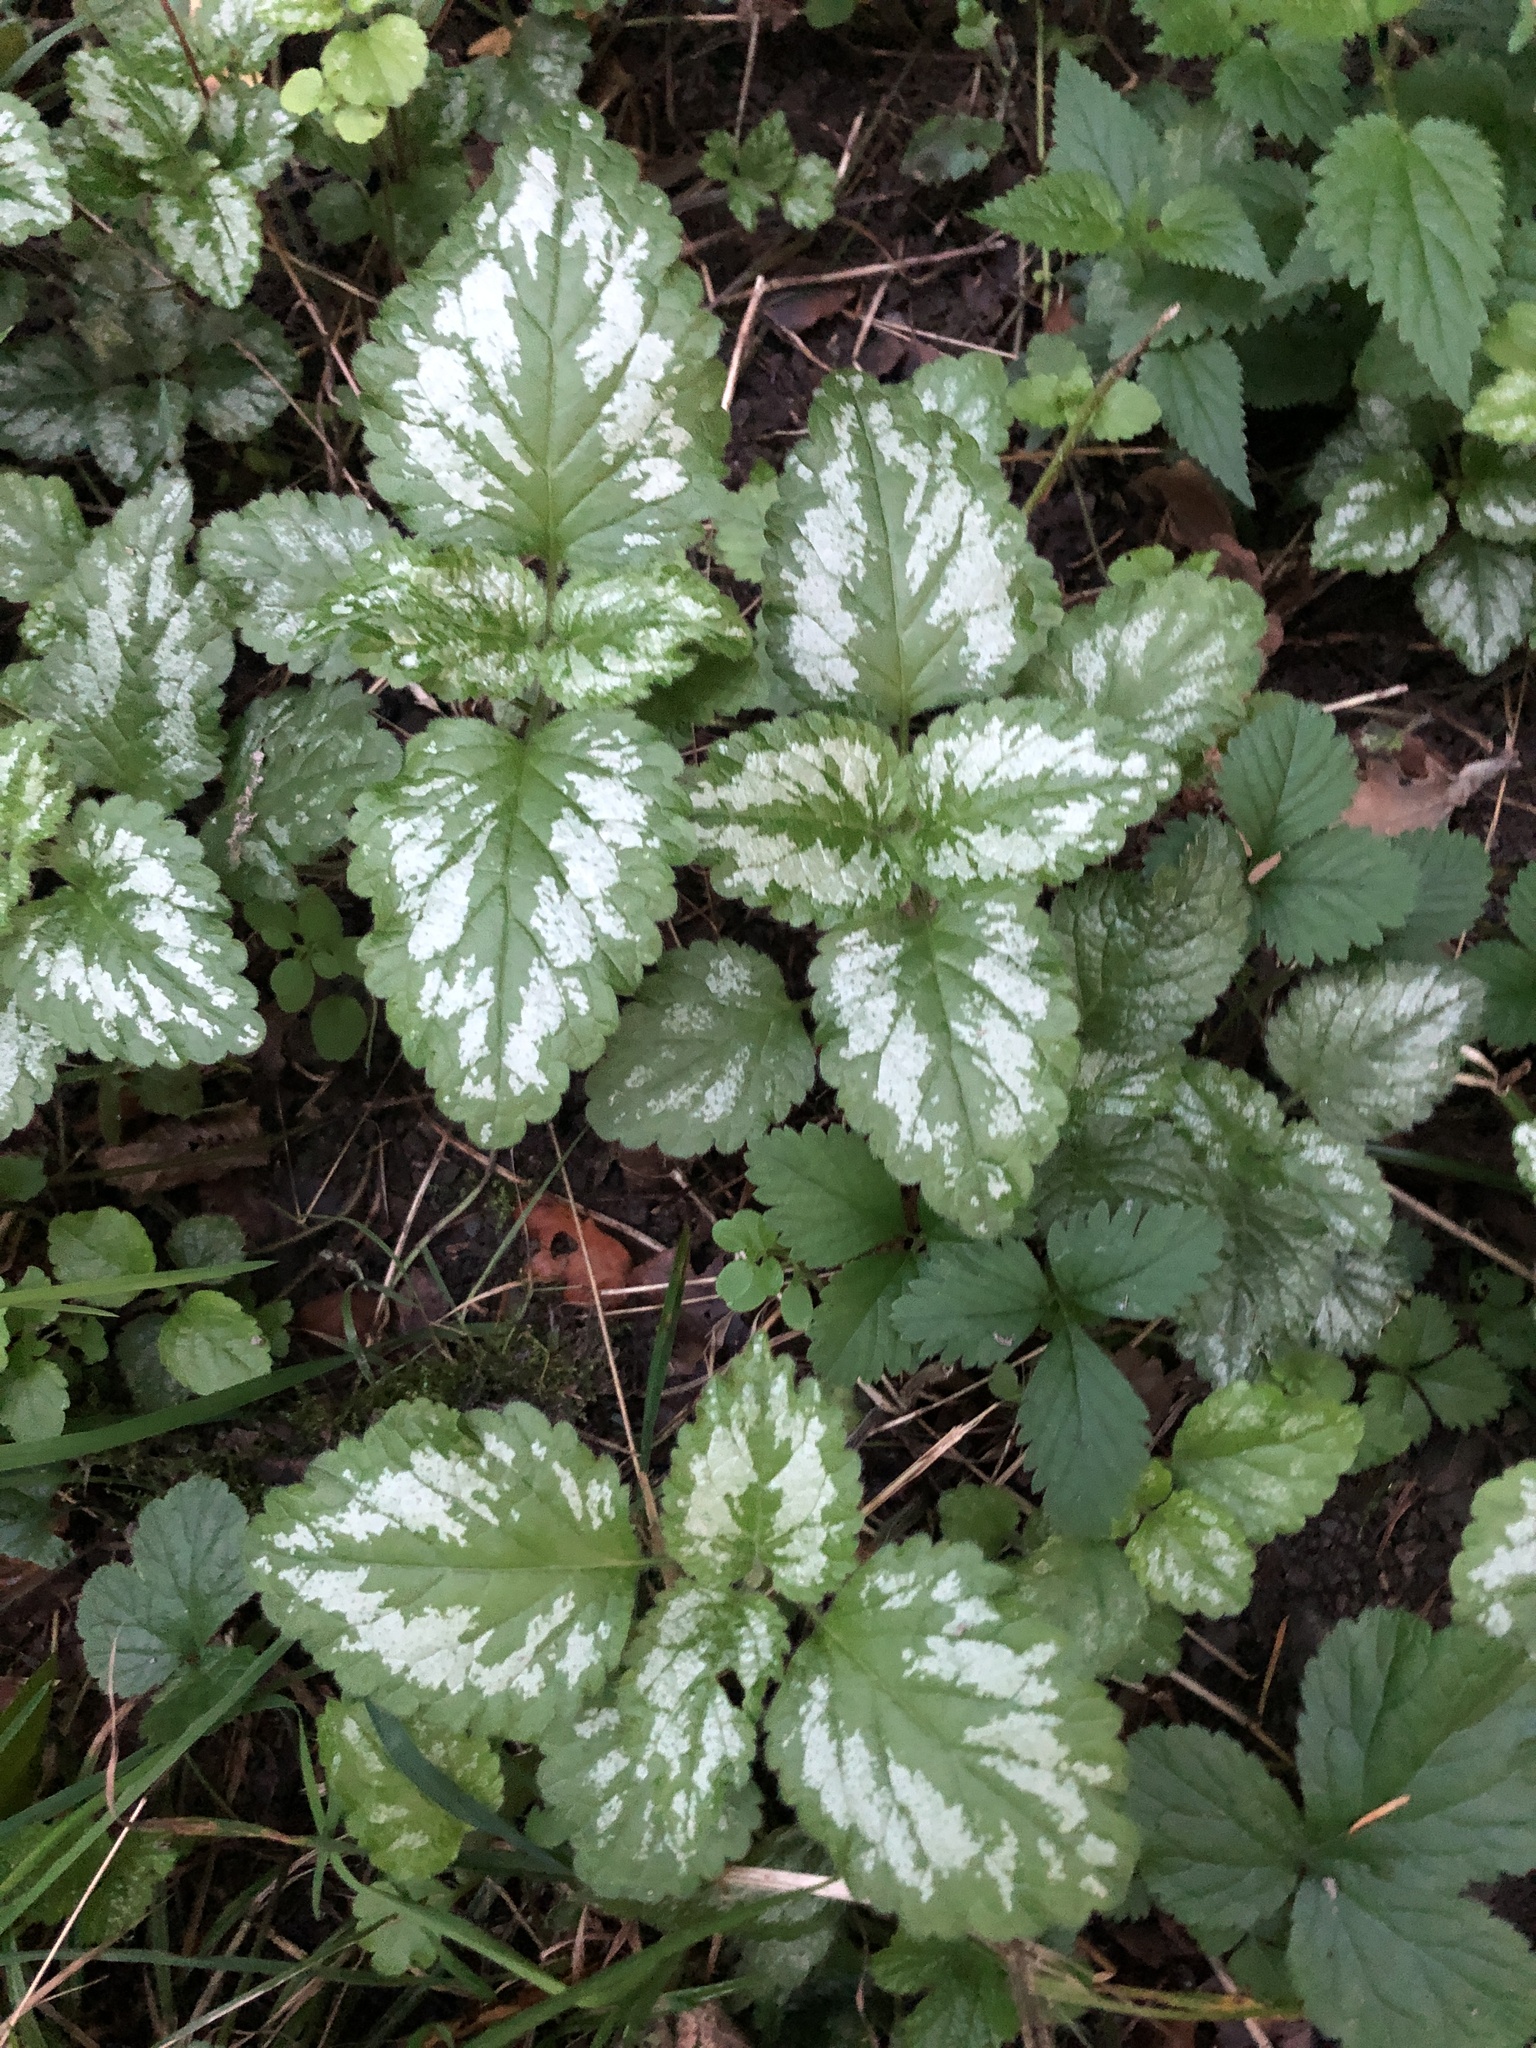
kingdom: Plantae
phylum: Tracheophyta
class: Magnoliopsida
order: Lamiales
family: Lamiaceae
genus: Lamium
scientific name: Lamium galeobdolon
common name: Yellow archangel
